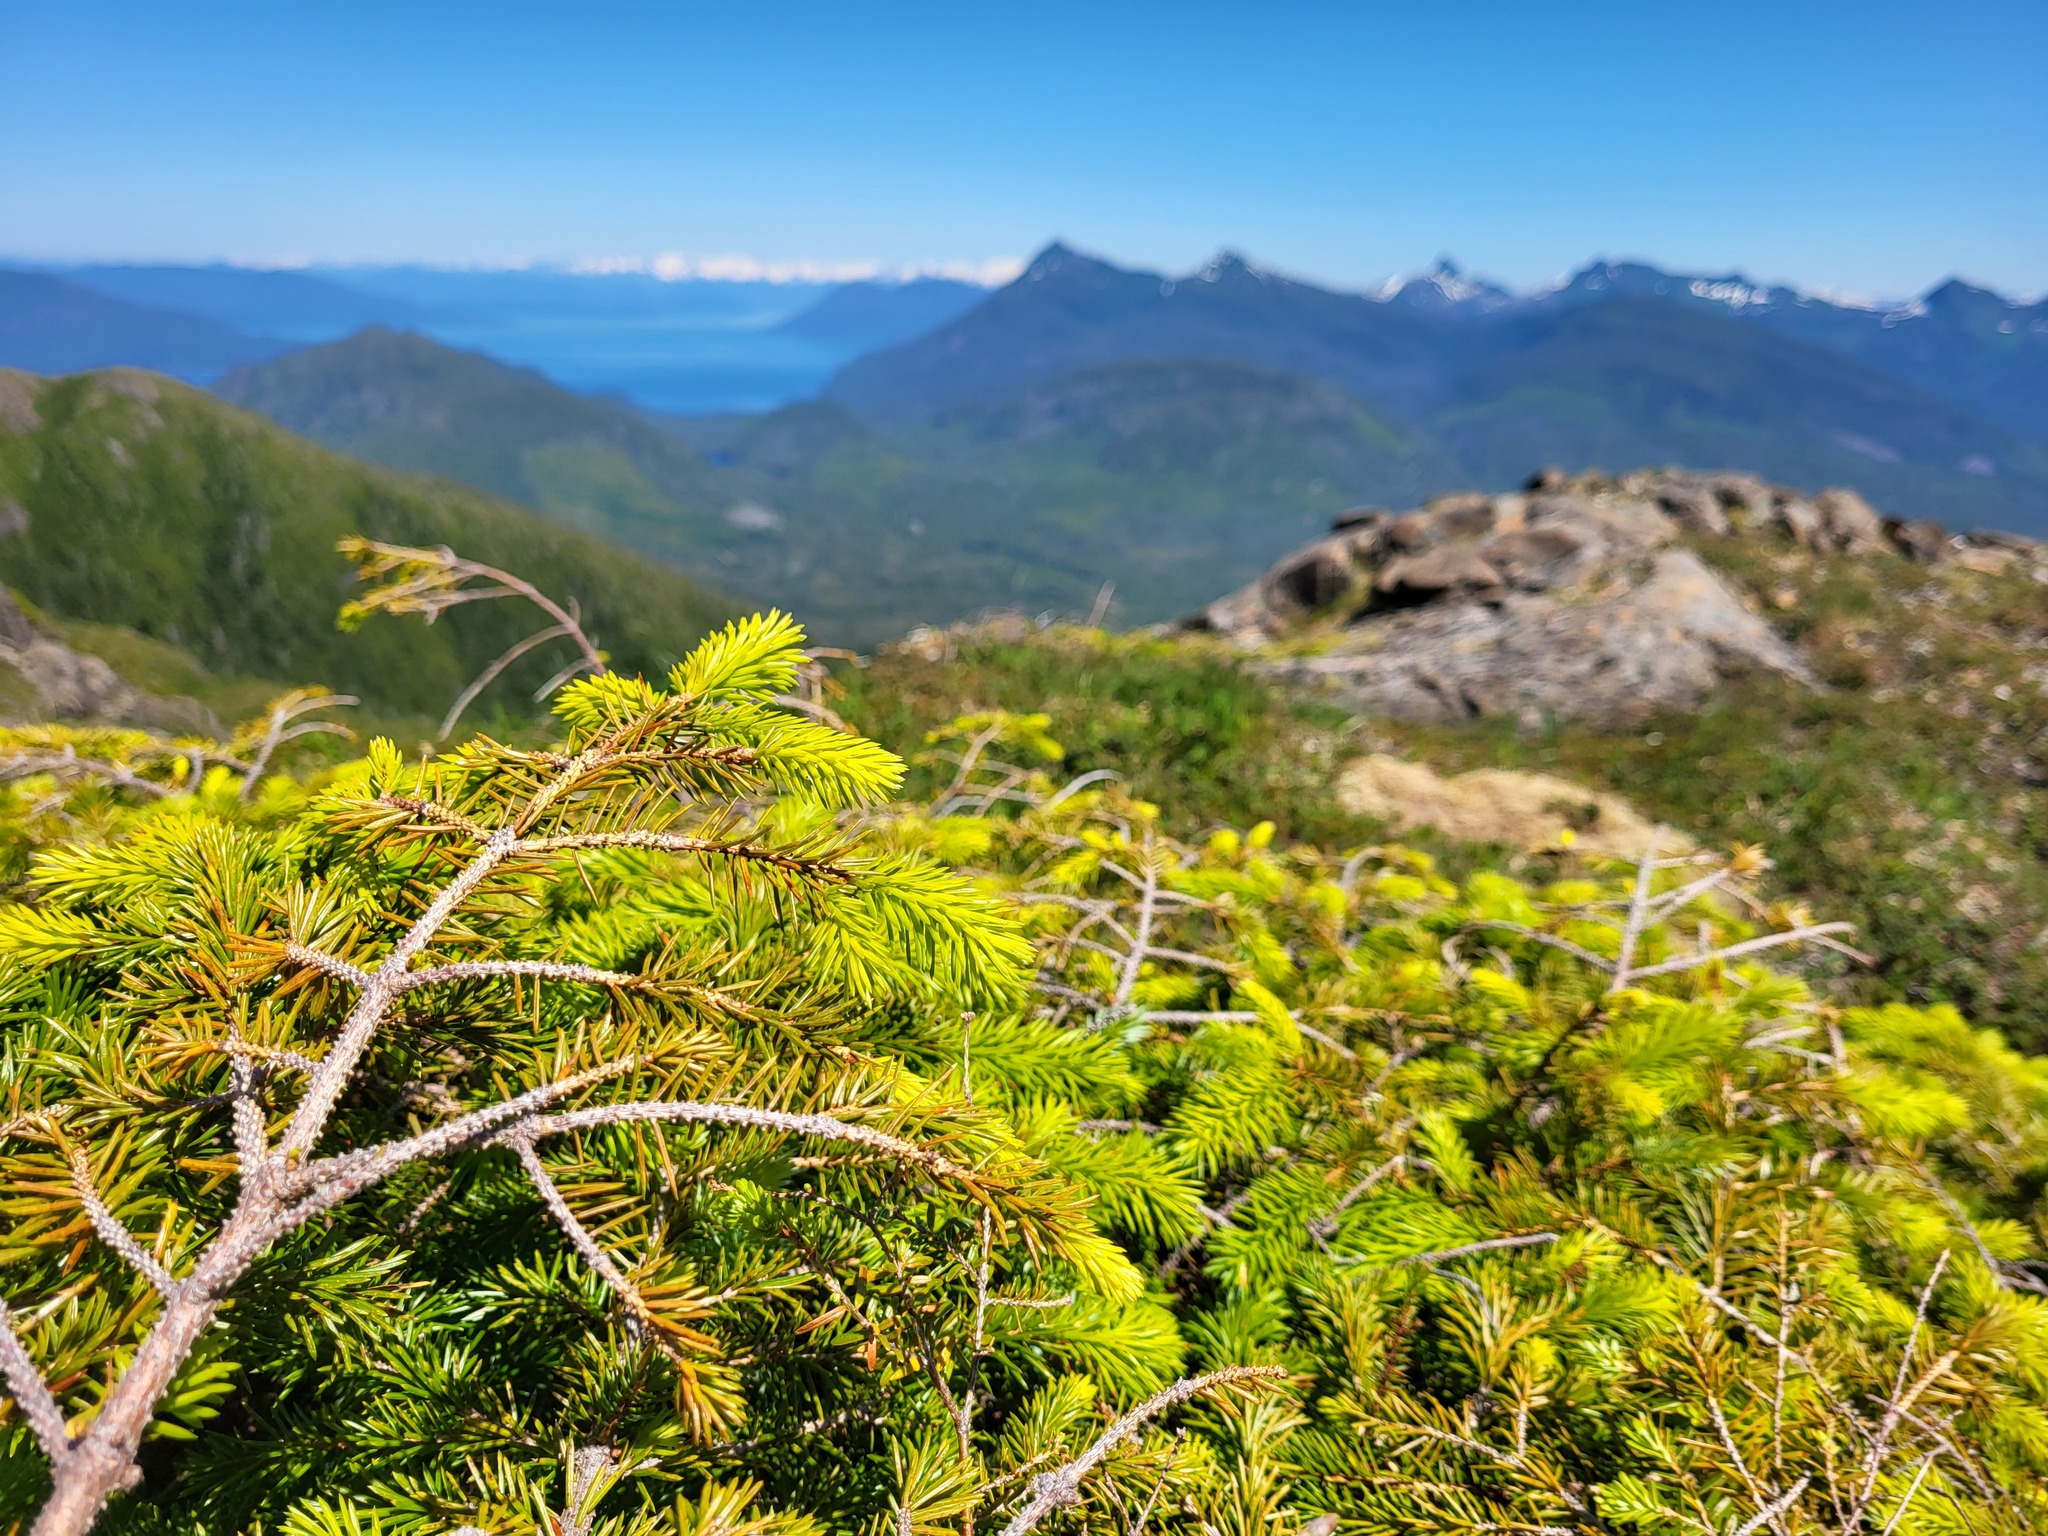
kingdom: Plantae
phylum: Tracheophyta
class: Pinopsida
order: Pinales
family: Pinaceae
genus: Picea
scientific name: Picea sitchensis
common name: Sitka spruce
